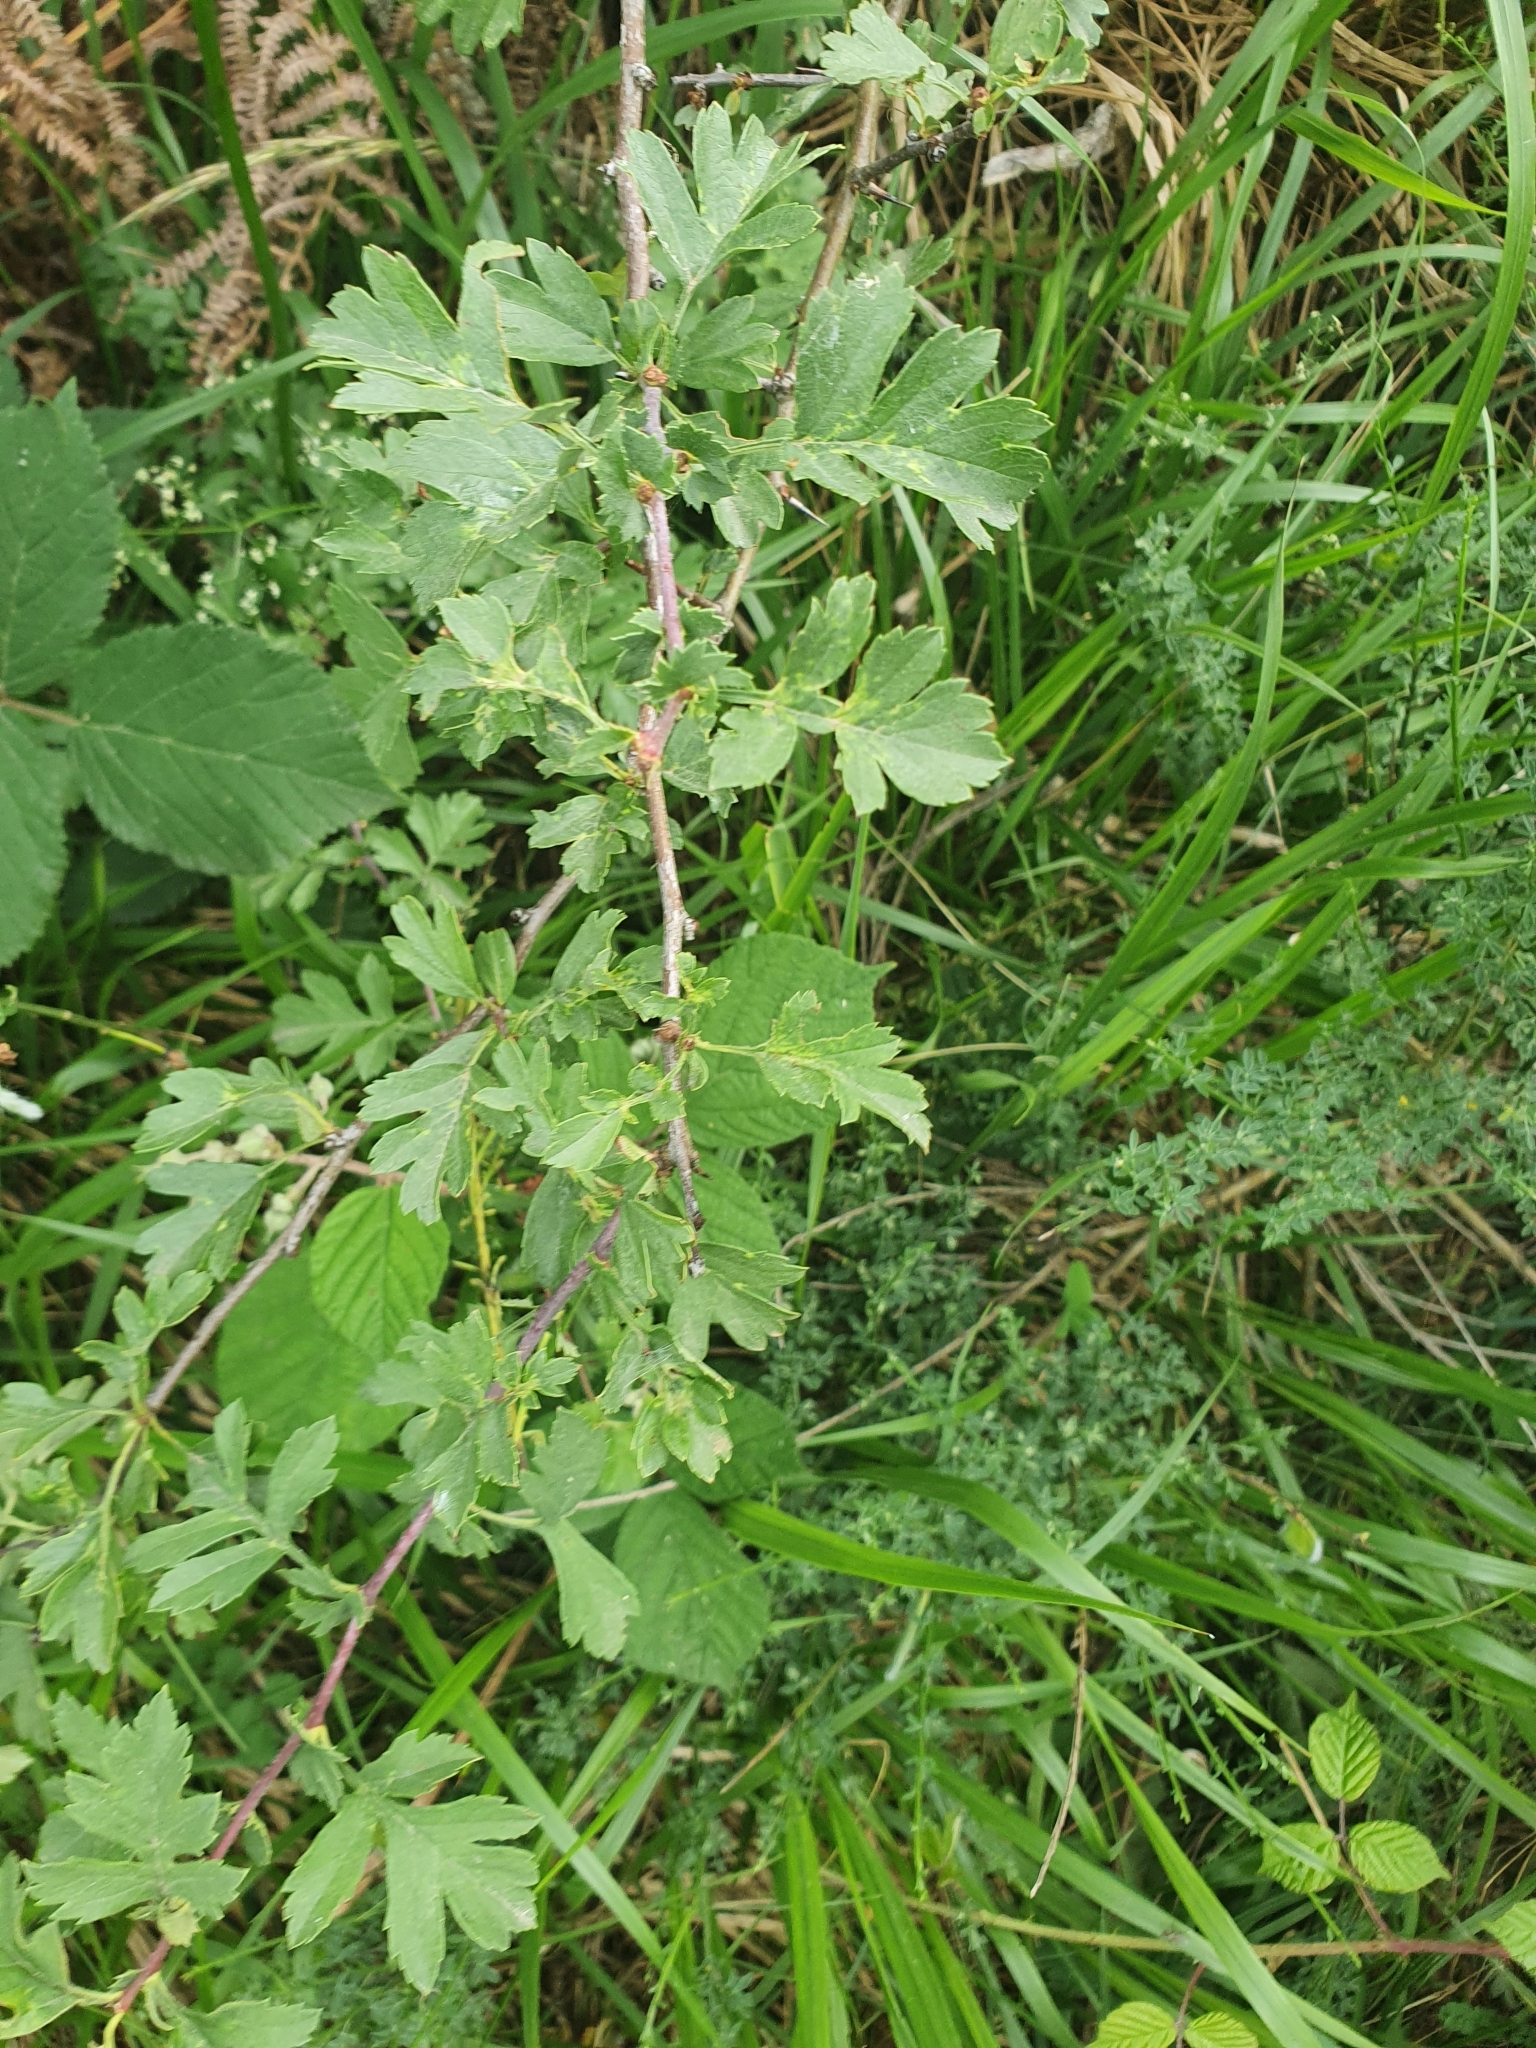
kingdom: Plantae
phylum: Tracheophyta
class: Magnoliopsida
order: Rosales
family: Rosaceae
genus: Crataegus
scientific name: Crataegus monogyna
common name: Hawthorn
